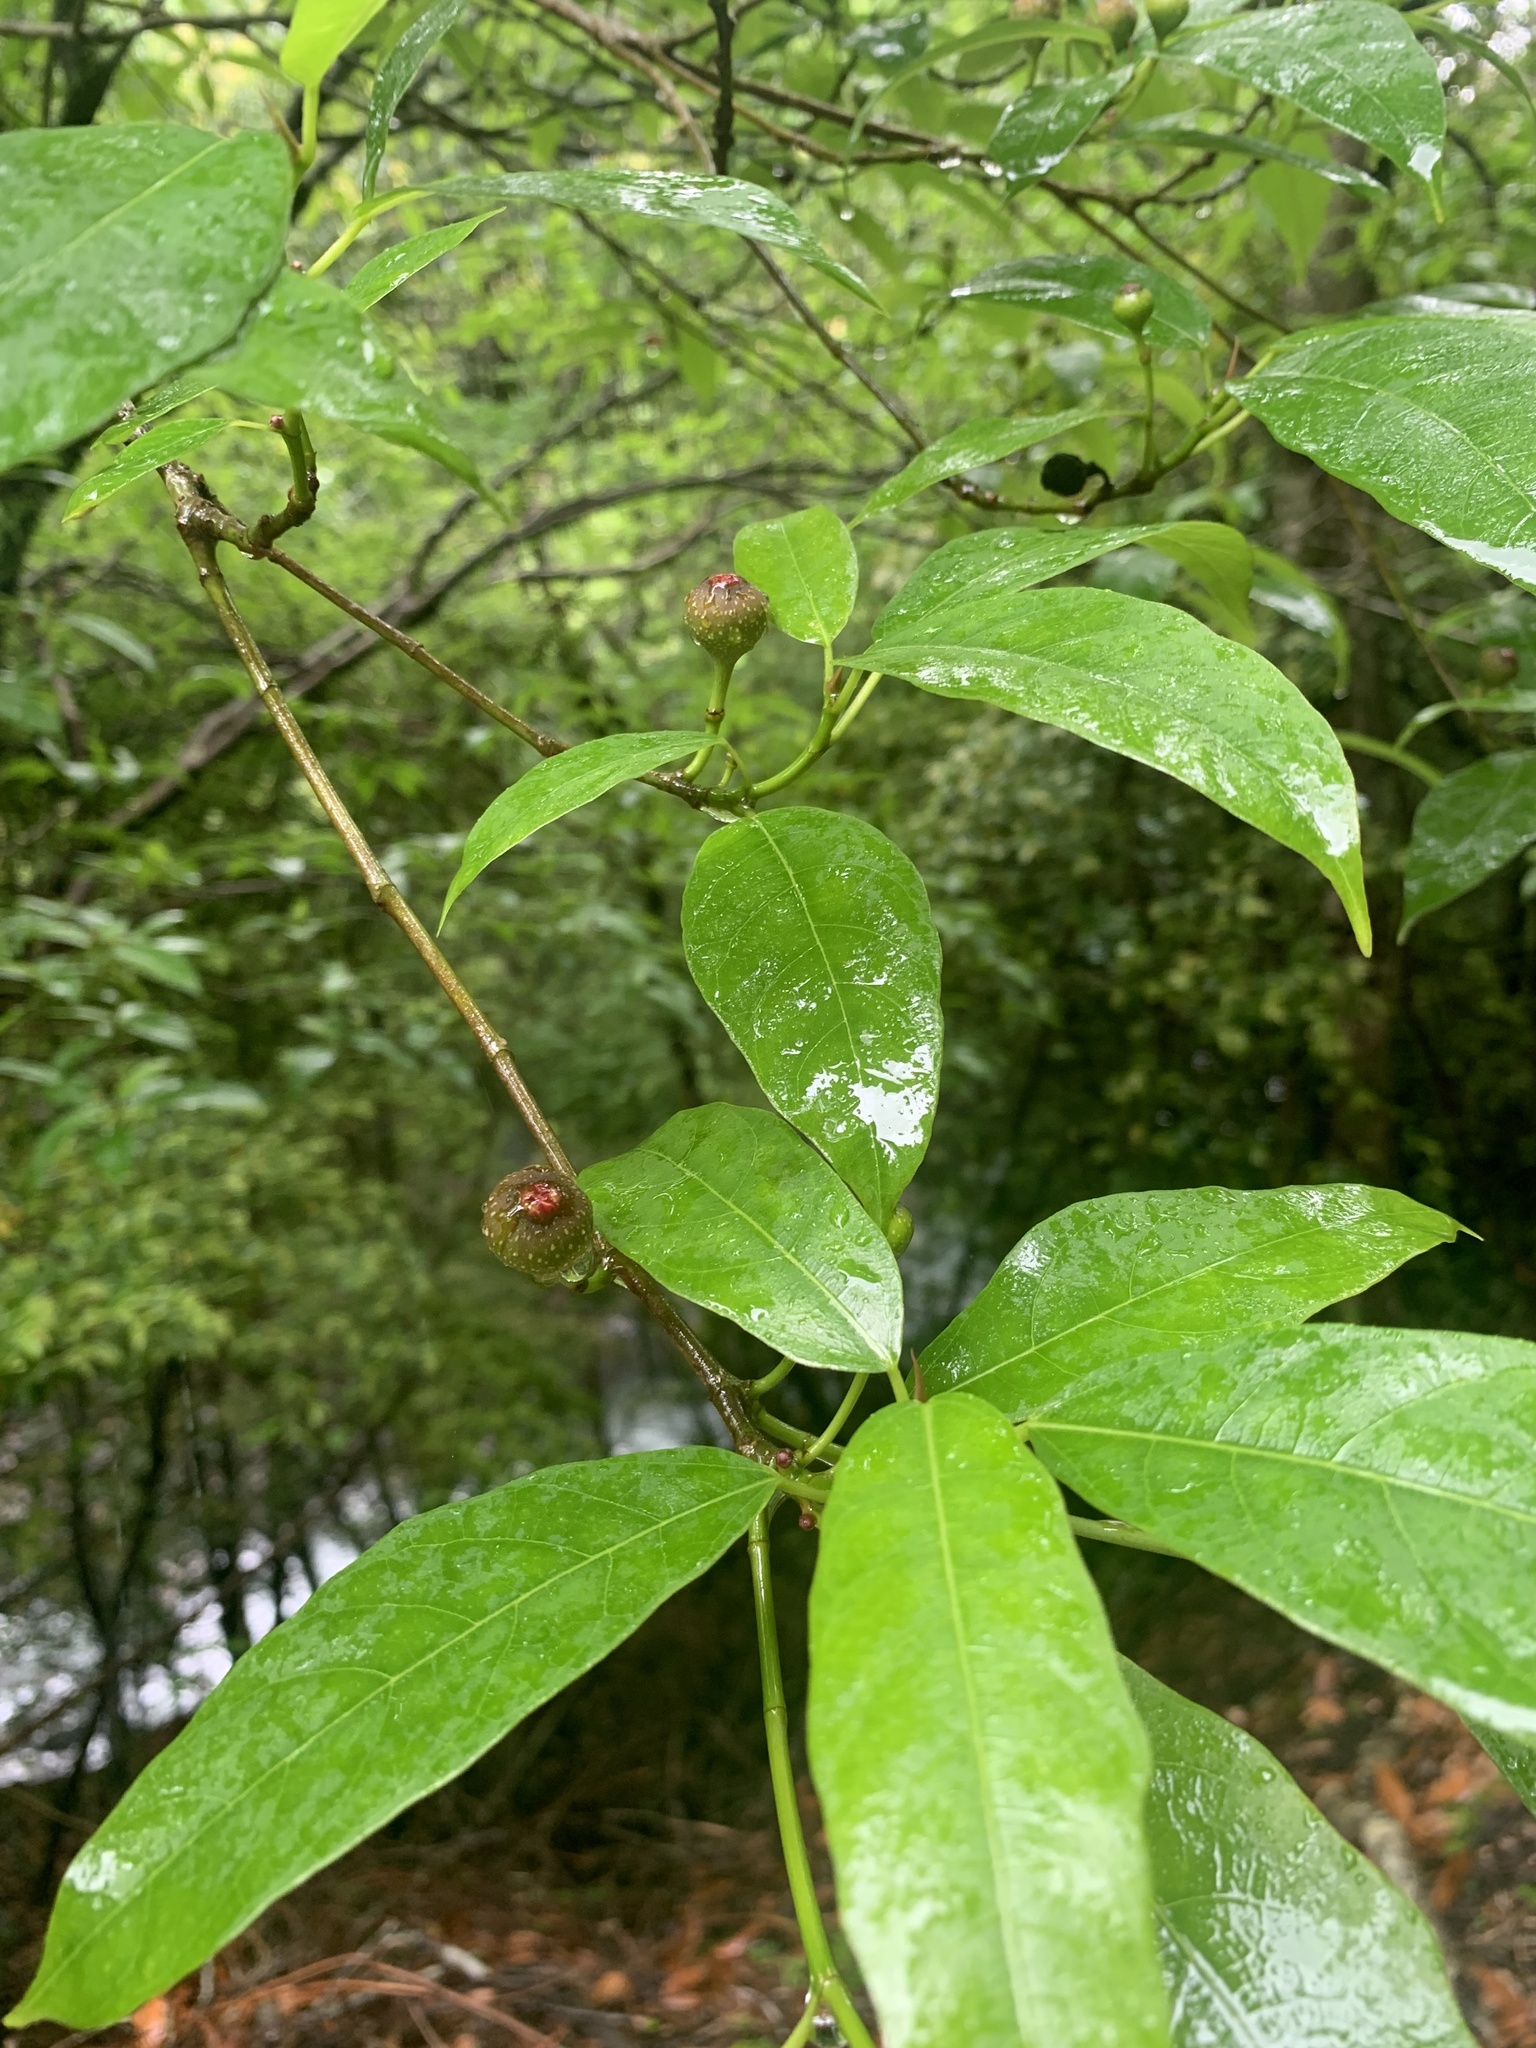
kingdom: Plantae
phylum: Tracheophyta
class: Magnoliopsida
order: Rosales
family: Moraceae
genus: Ficus
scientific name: Ficus erecta
